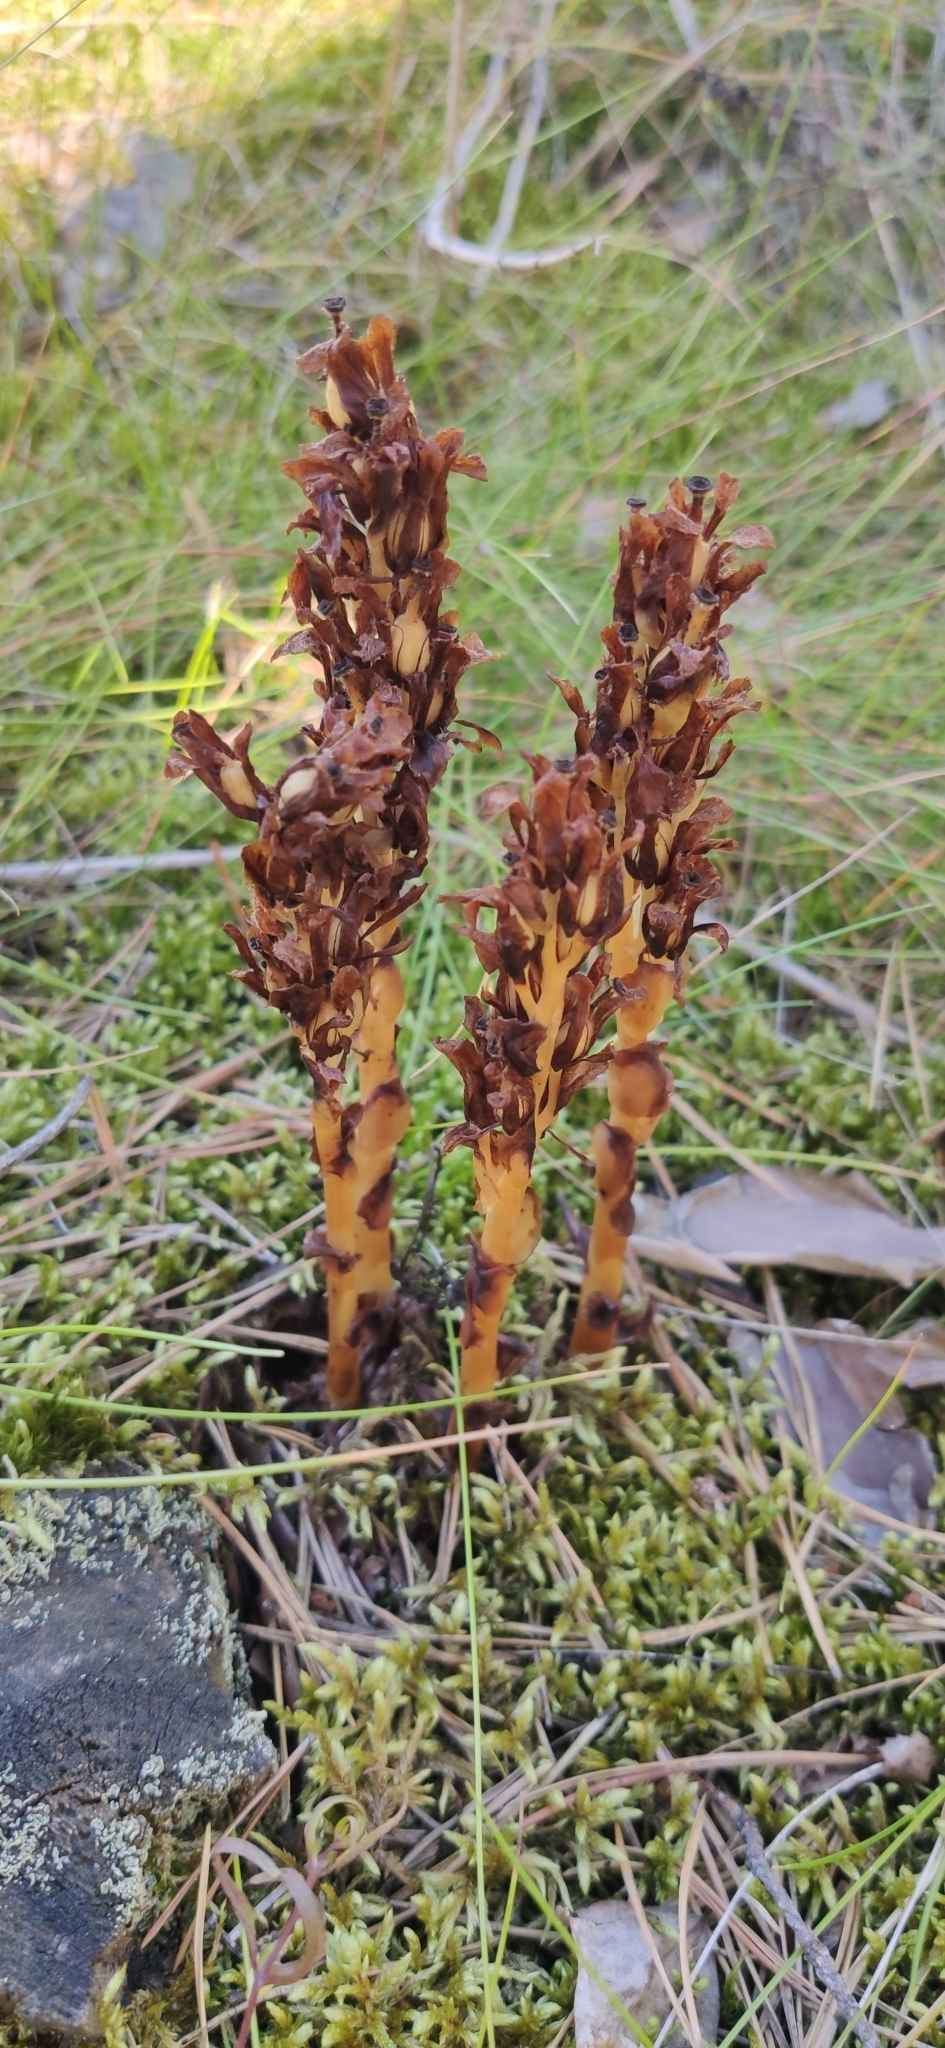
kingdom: Plantae
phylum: Tracheophyta
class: Magnoliopsida
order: Ericales
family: Ericaceae
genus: Hypopitys
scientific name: Hypopitys monotropa
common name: Yellow bird's-nest
